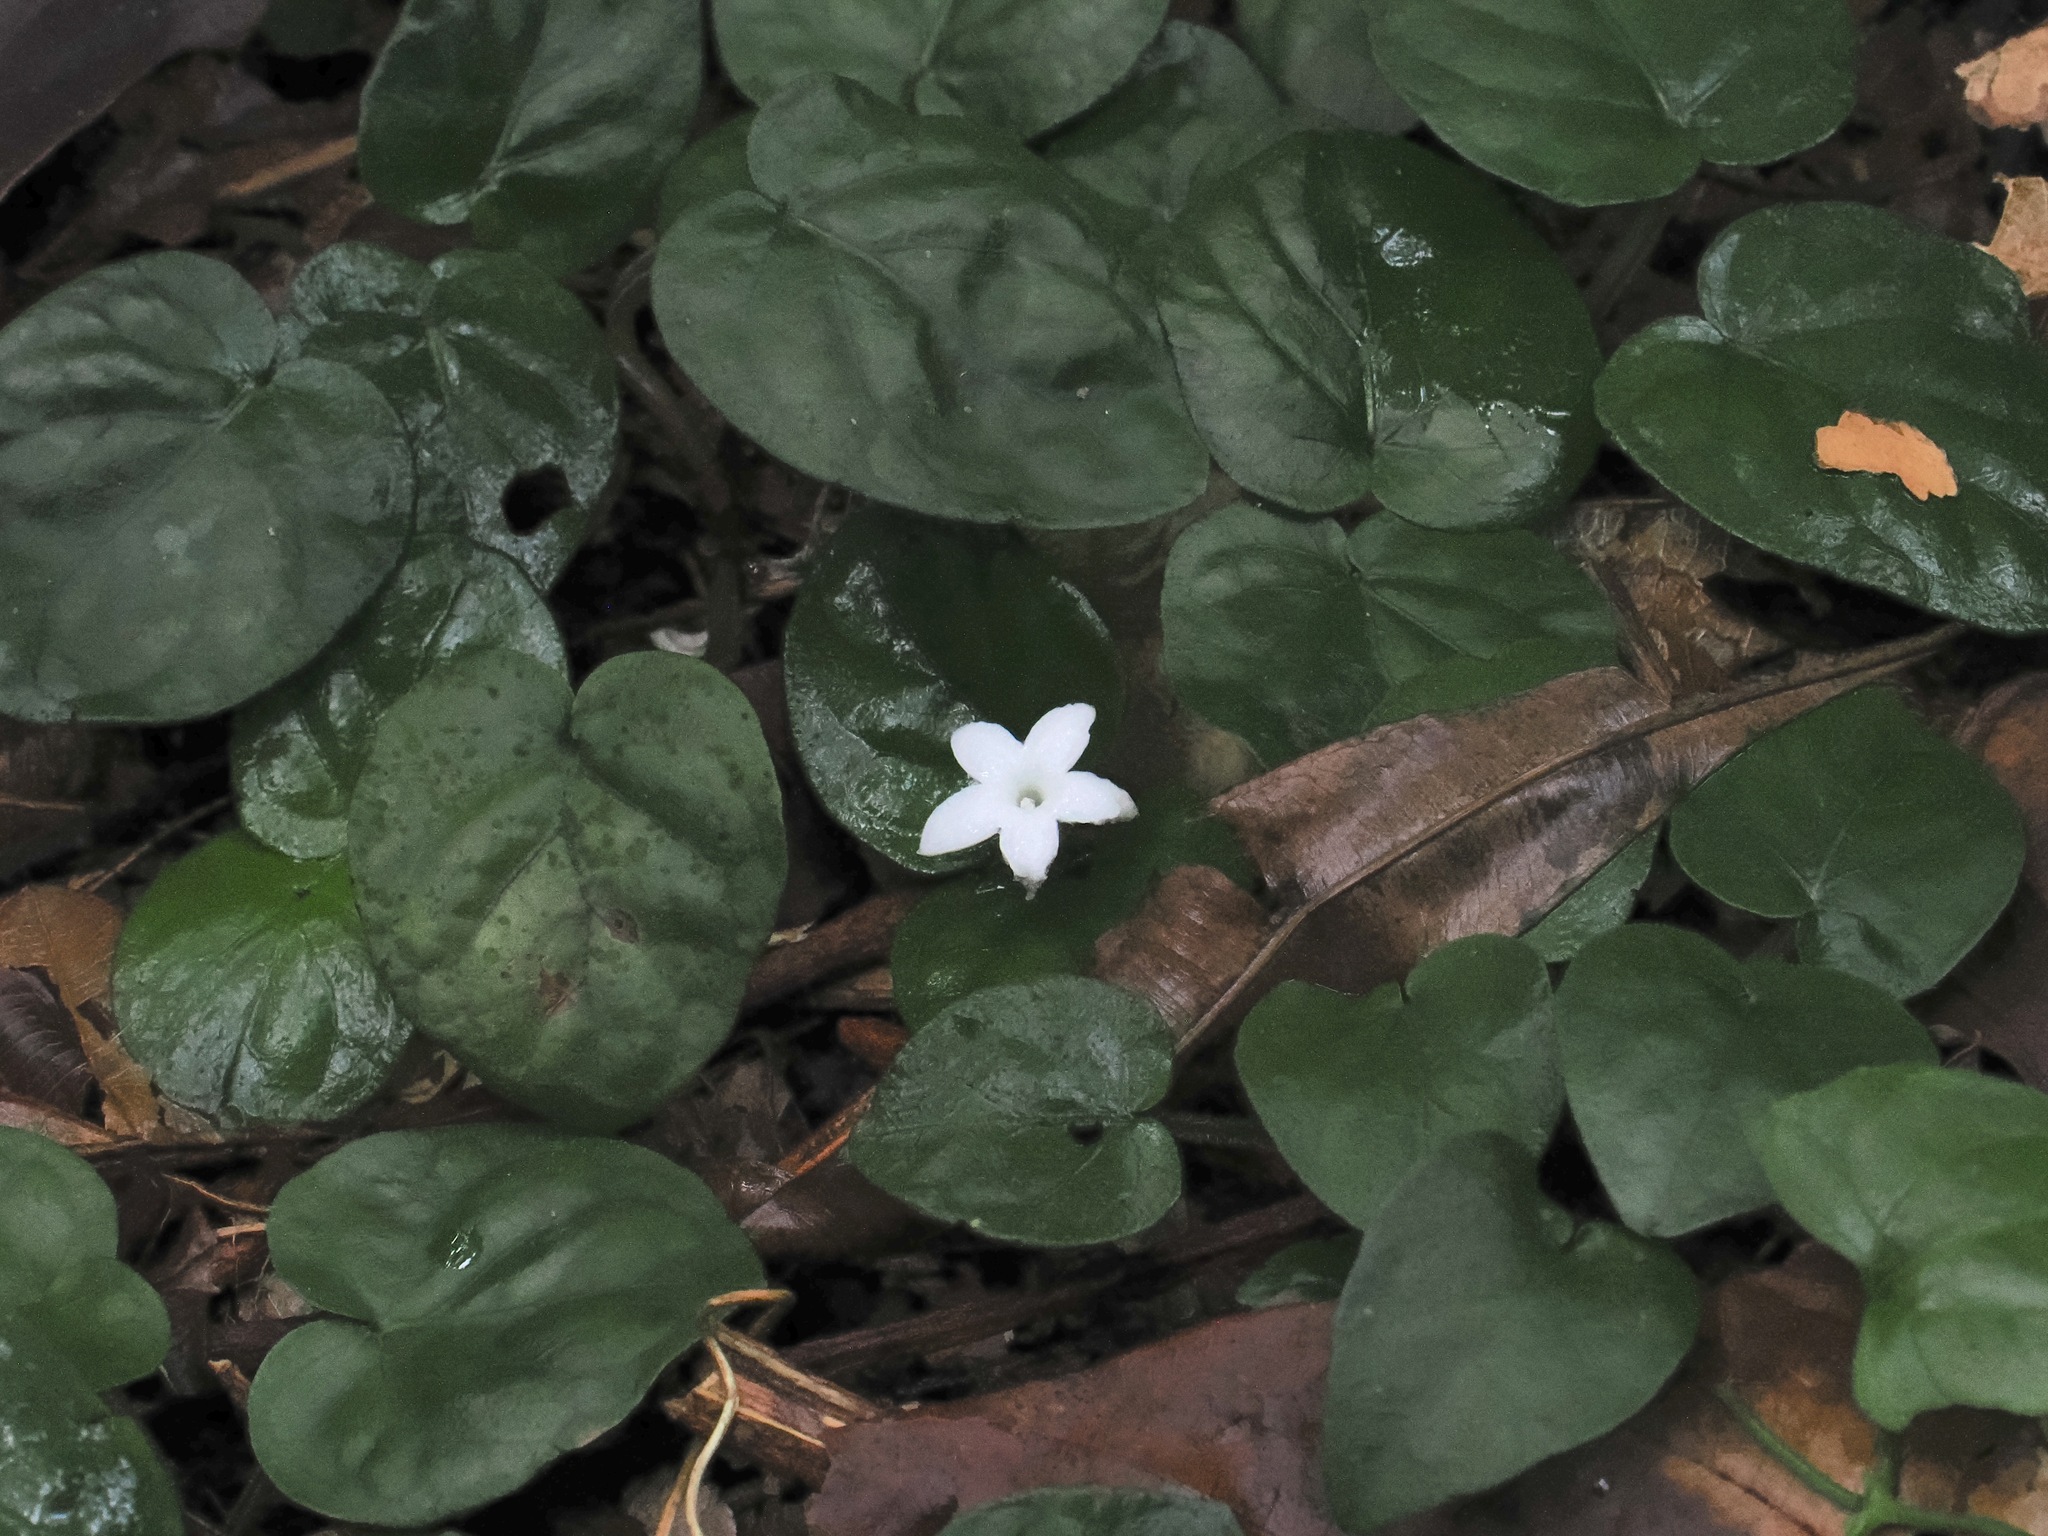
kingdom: Plantae
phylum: Tracheophyta
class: Magnoliopsida
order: Gentianales
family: Rubiaceae
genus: Geophila
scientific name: Geophila repens
